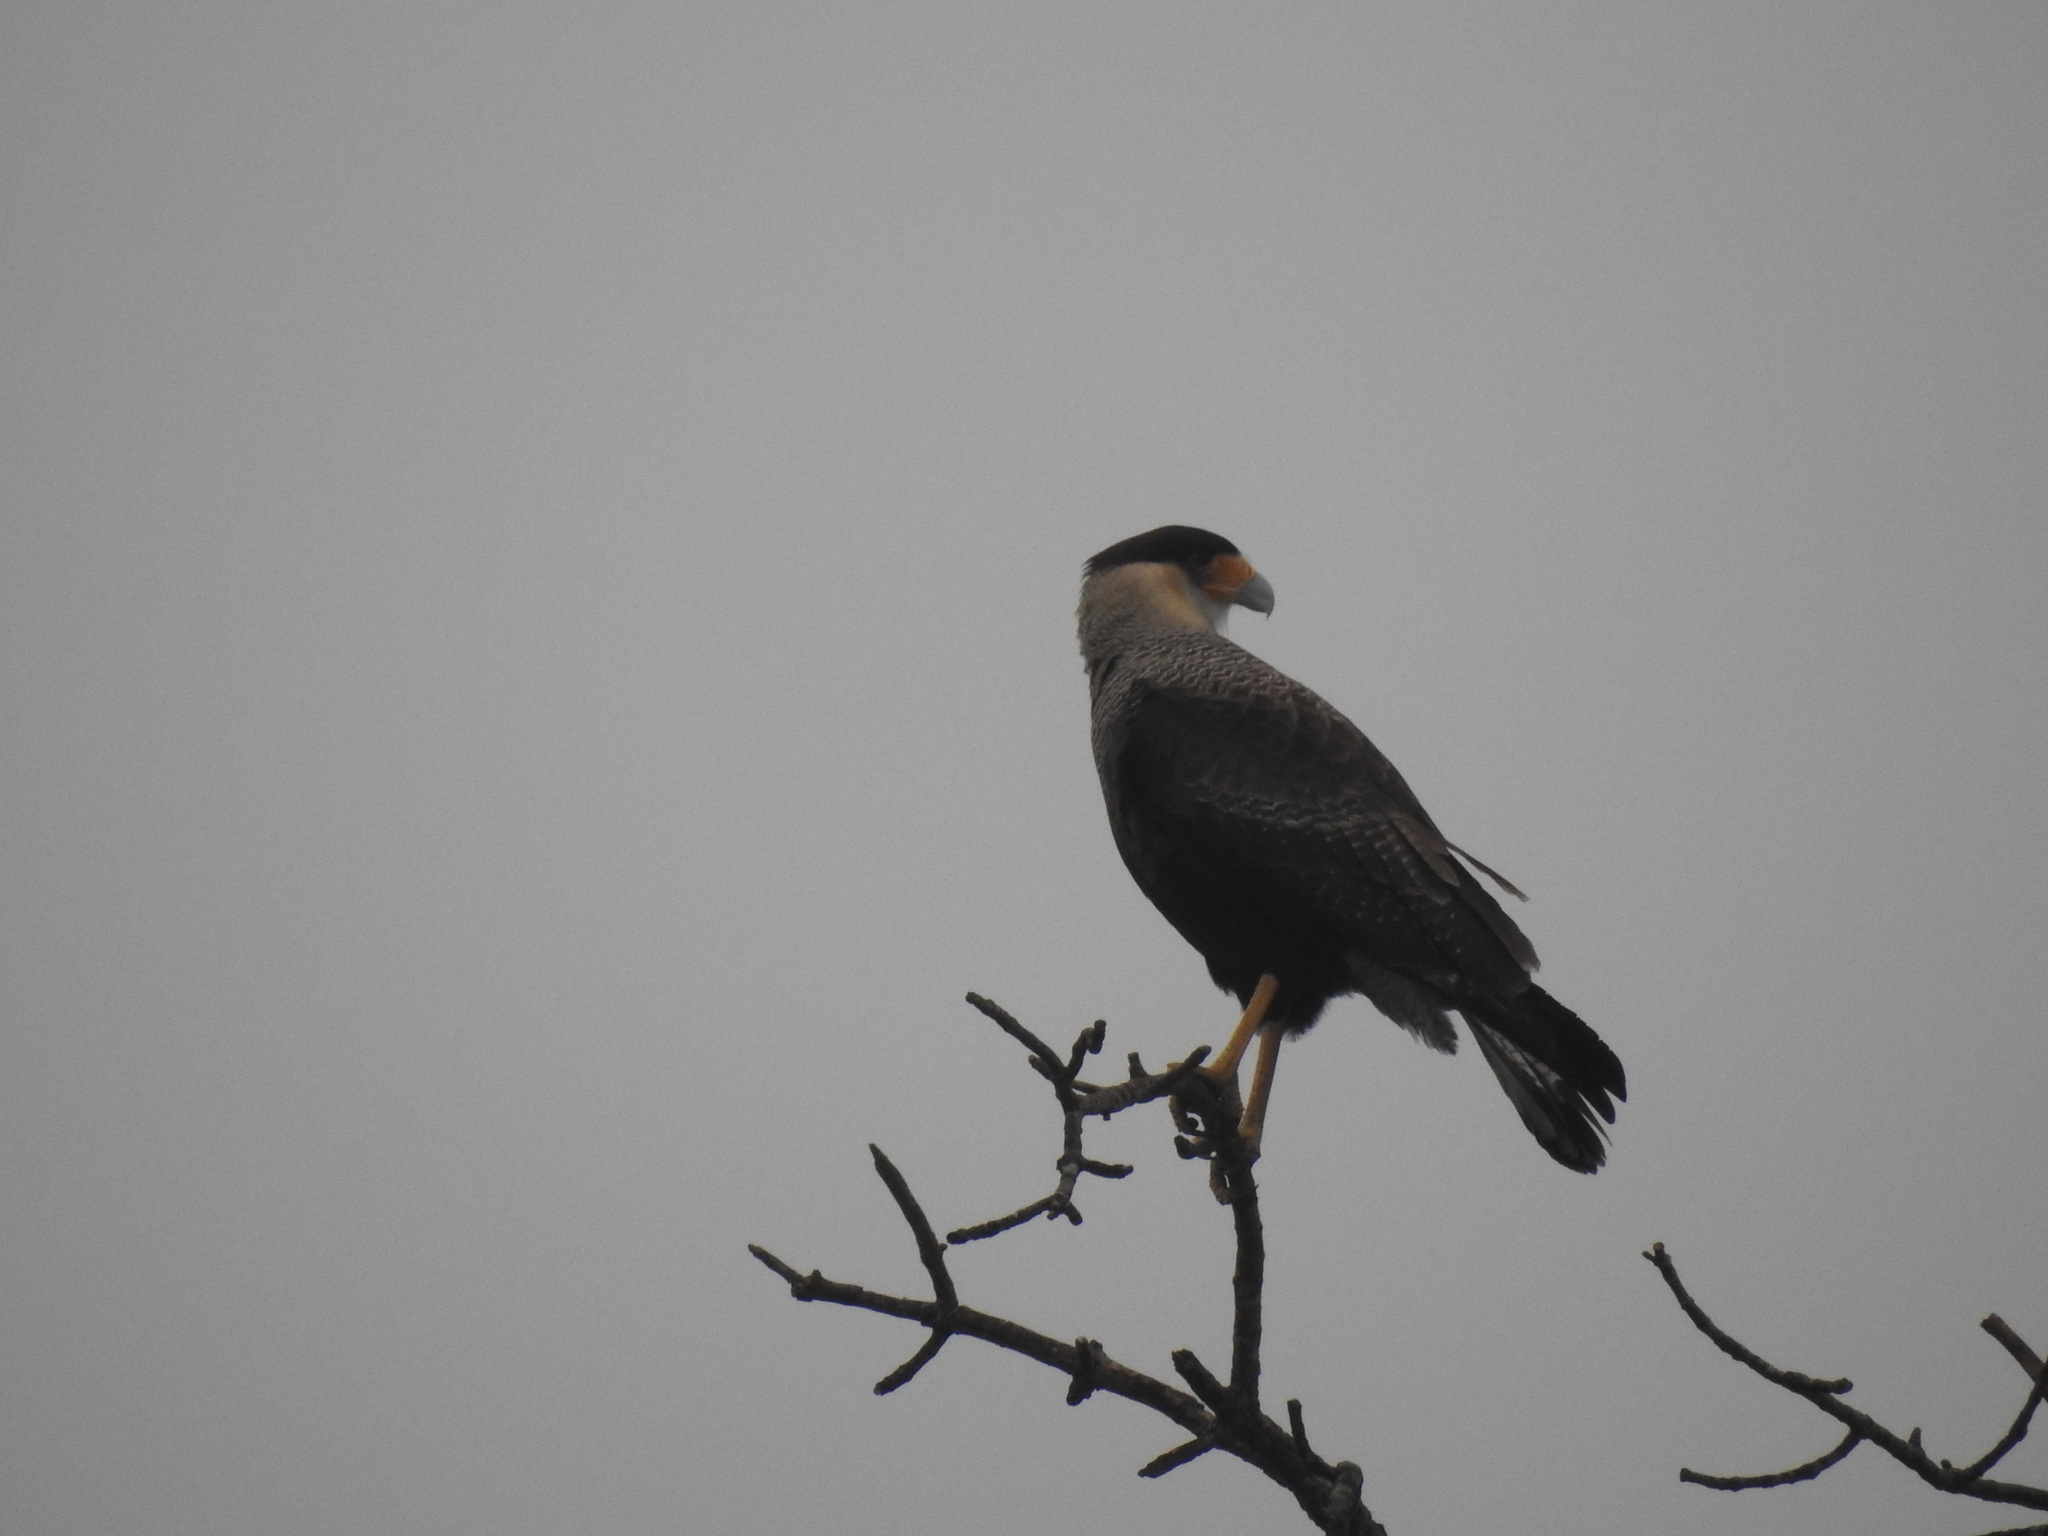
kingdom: Animalia
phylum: Chordata
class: Aves
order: Falconiformes
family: Falconidae
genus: Caracara
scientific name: Caracara plancus
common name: Southern caracara
